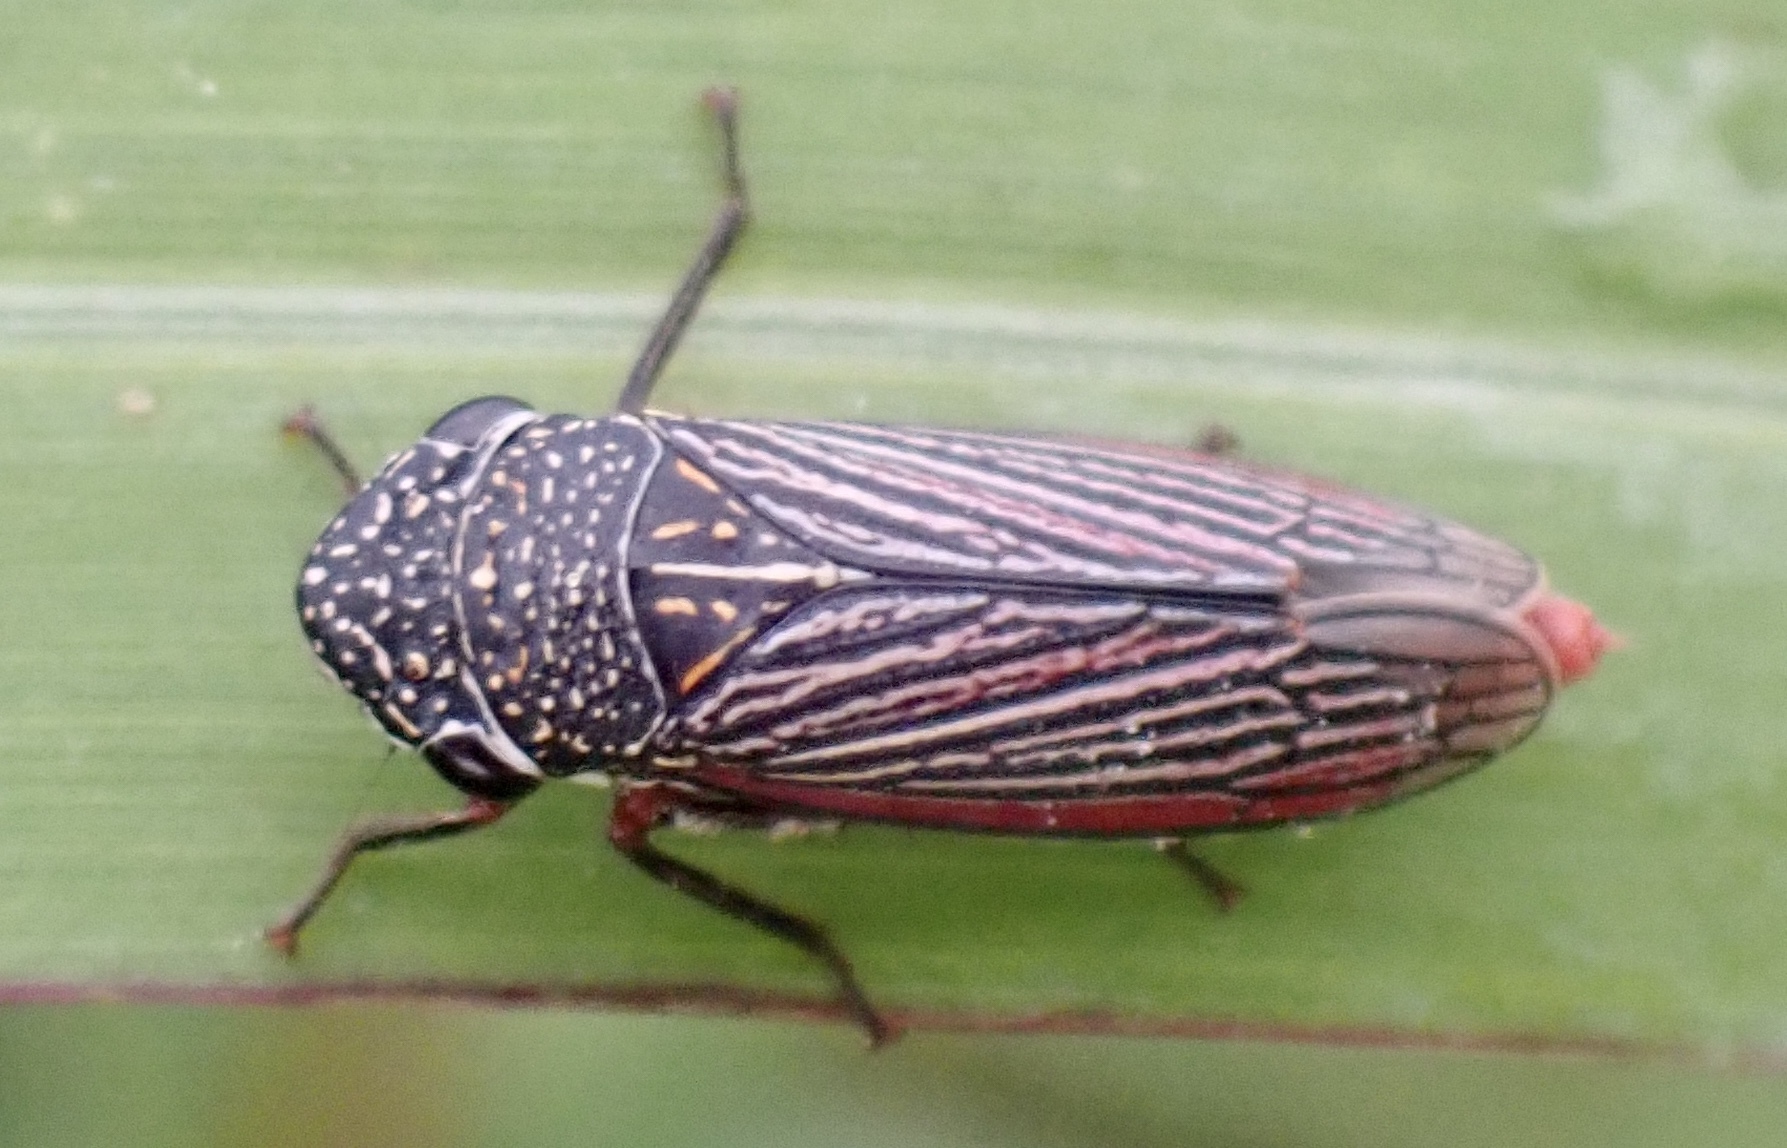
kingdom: Animalia
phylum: Arthropoda
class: Insecta
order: Hemiptera
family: Cicadellidae
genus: Cuerna
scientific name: Cuerna costalis
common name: Lateral-lined sharpshooter
